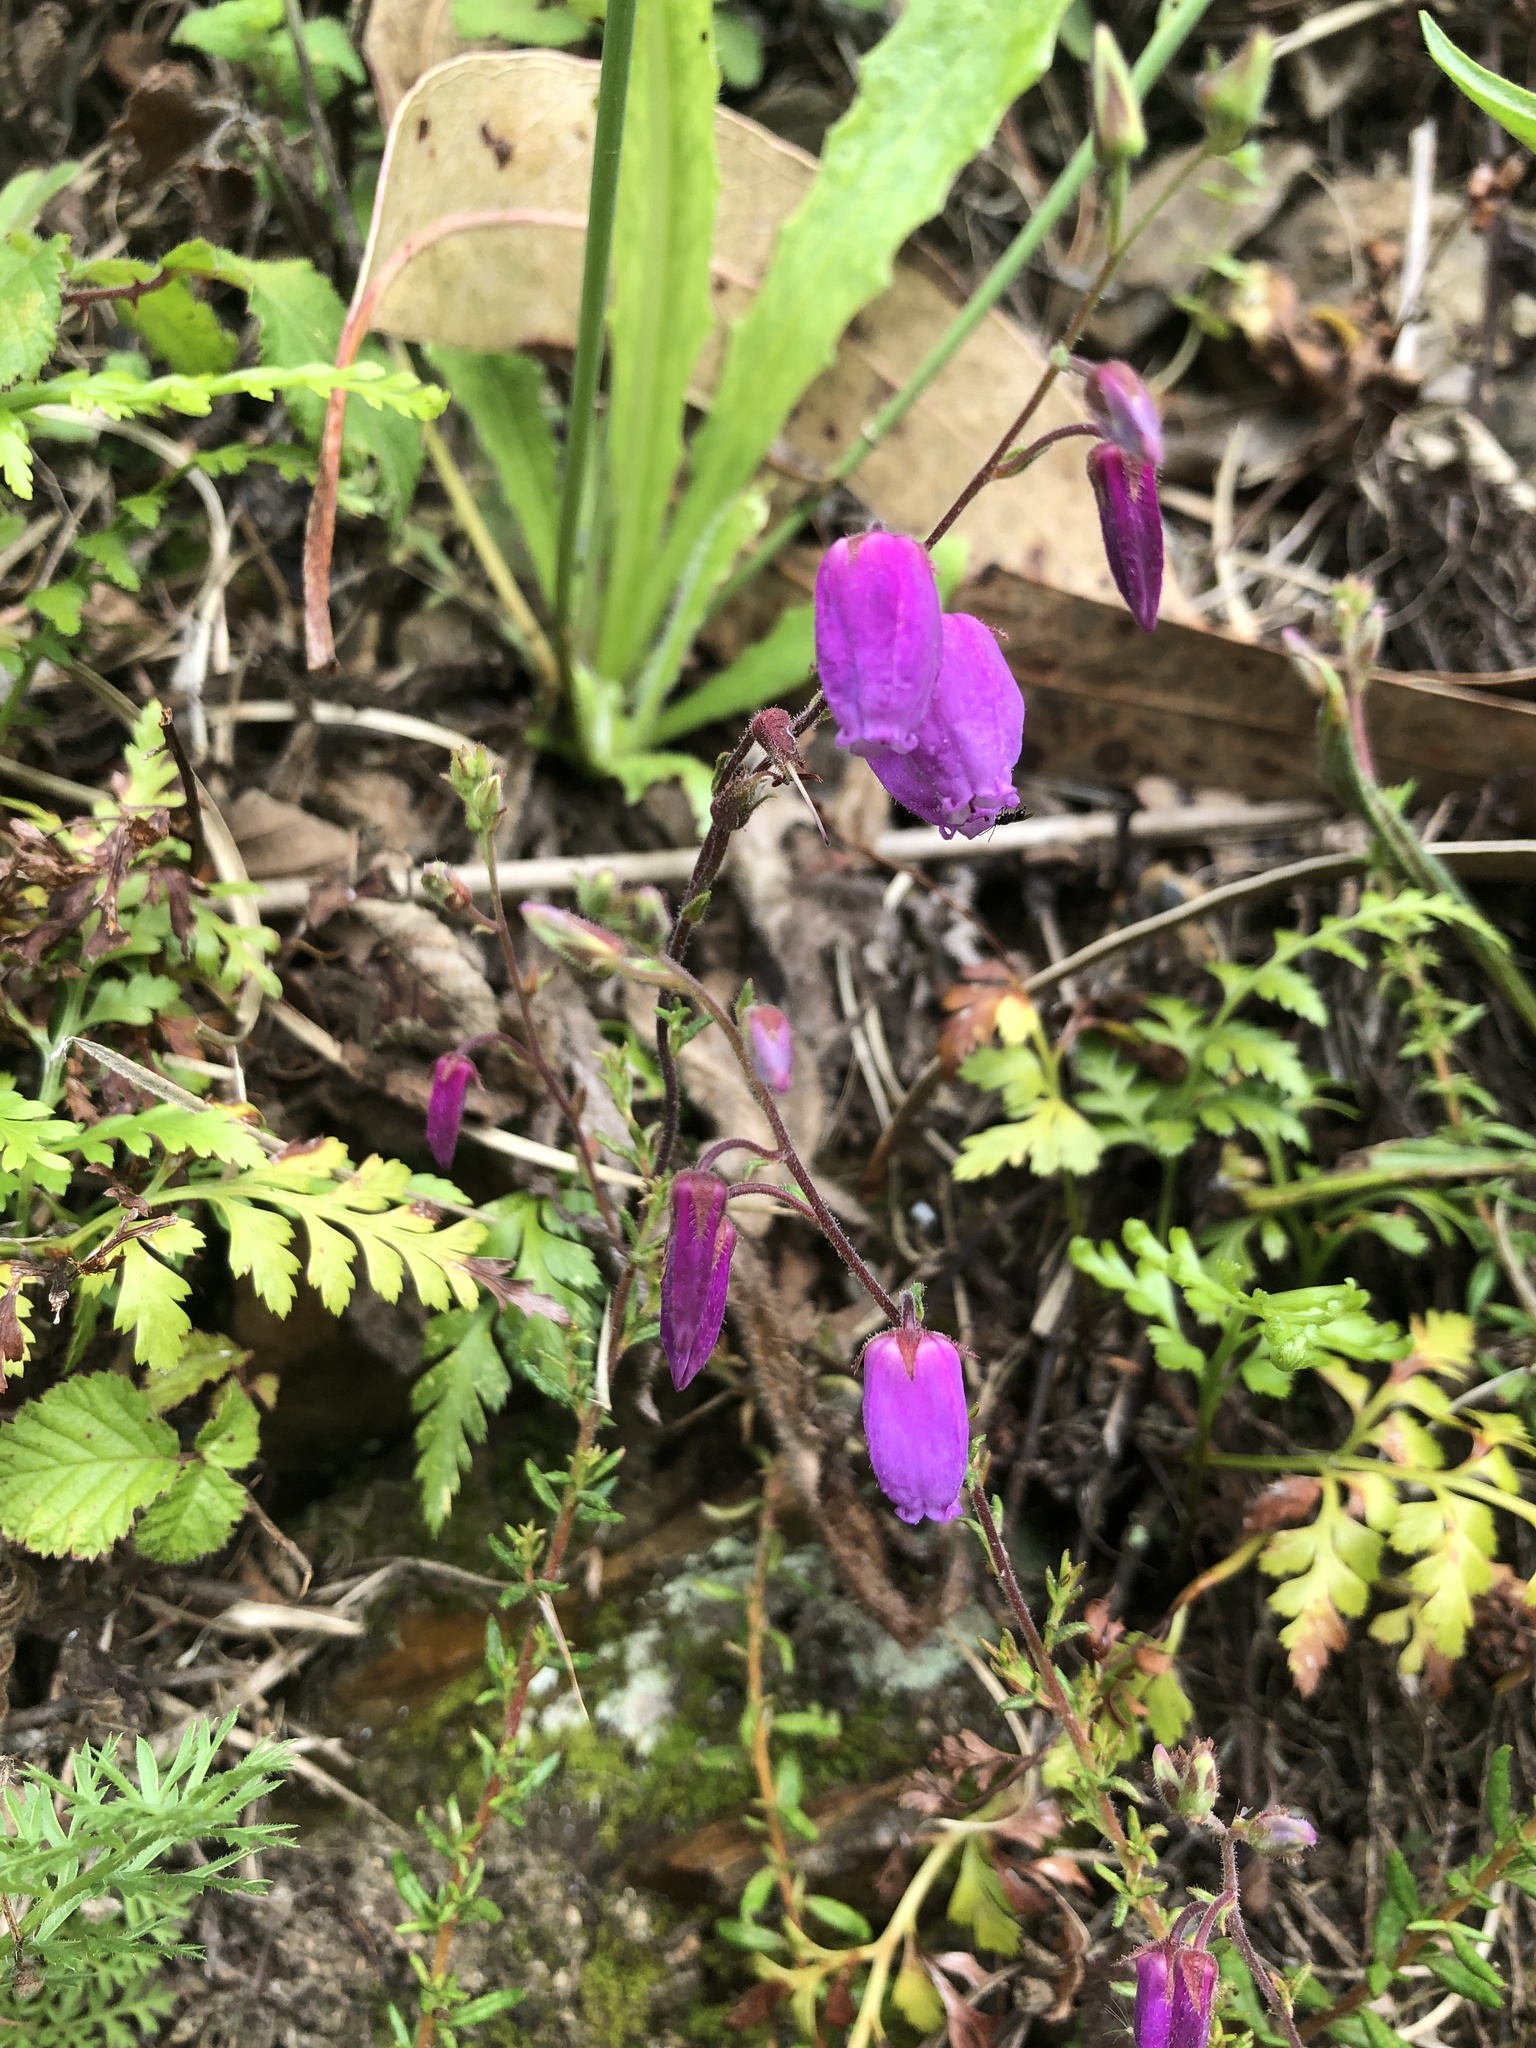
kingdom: Plantae
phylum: Tracheophyta
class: Magnoliopsida
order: Ericales
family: Ericaceae
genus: Daboecia
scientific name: Daboecia cantabrica
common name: St. dabeoc's-heath
